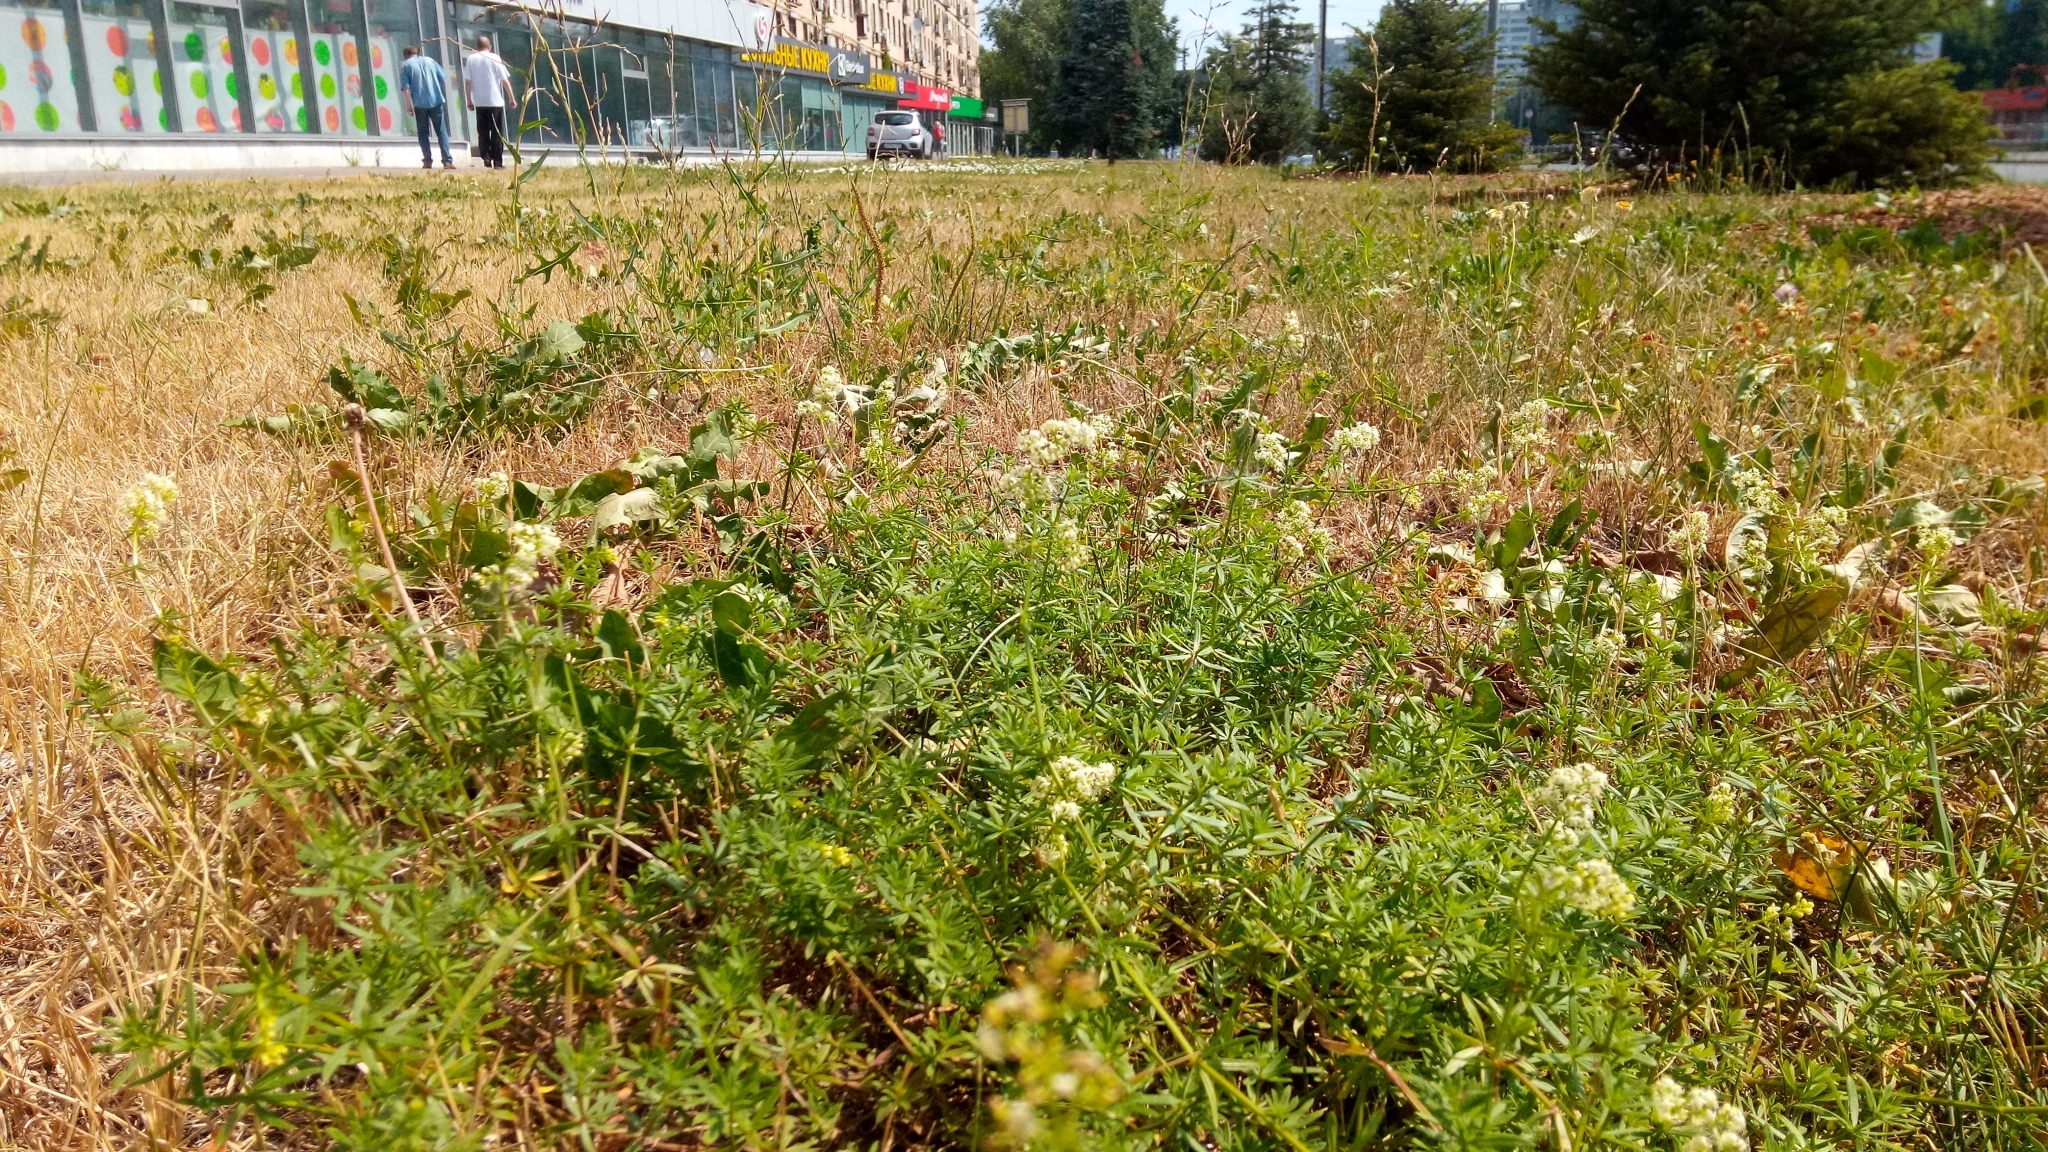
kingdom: Plantae
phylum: Tracheophyta
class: Magnoliopsida
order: Gentianales
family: Rubiaceae
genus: Galium
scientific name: Galium mollugo
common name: Hedge bedstraw
